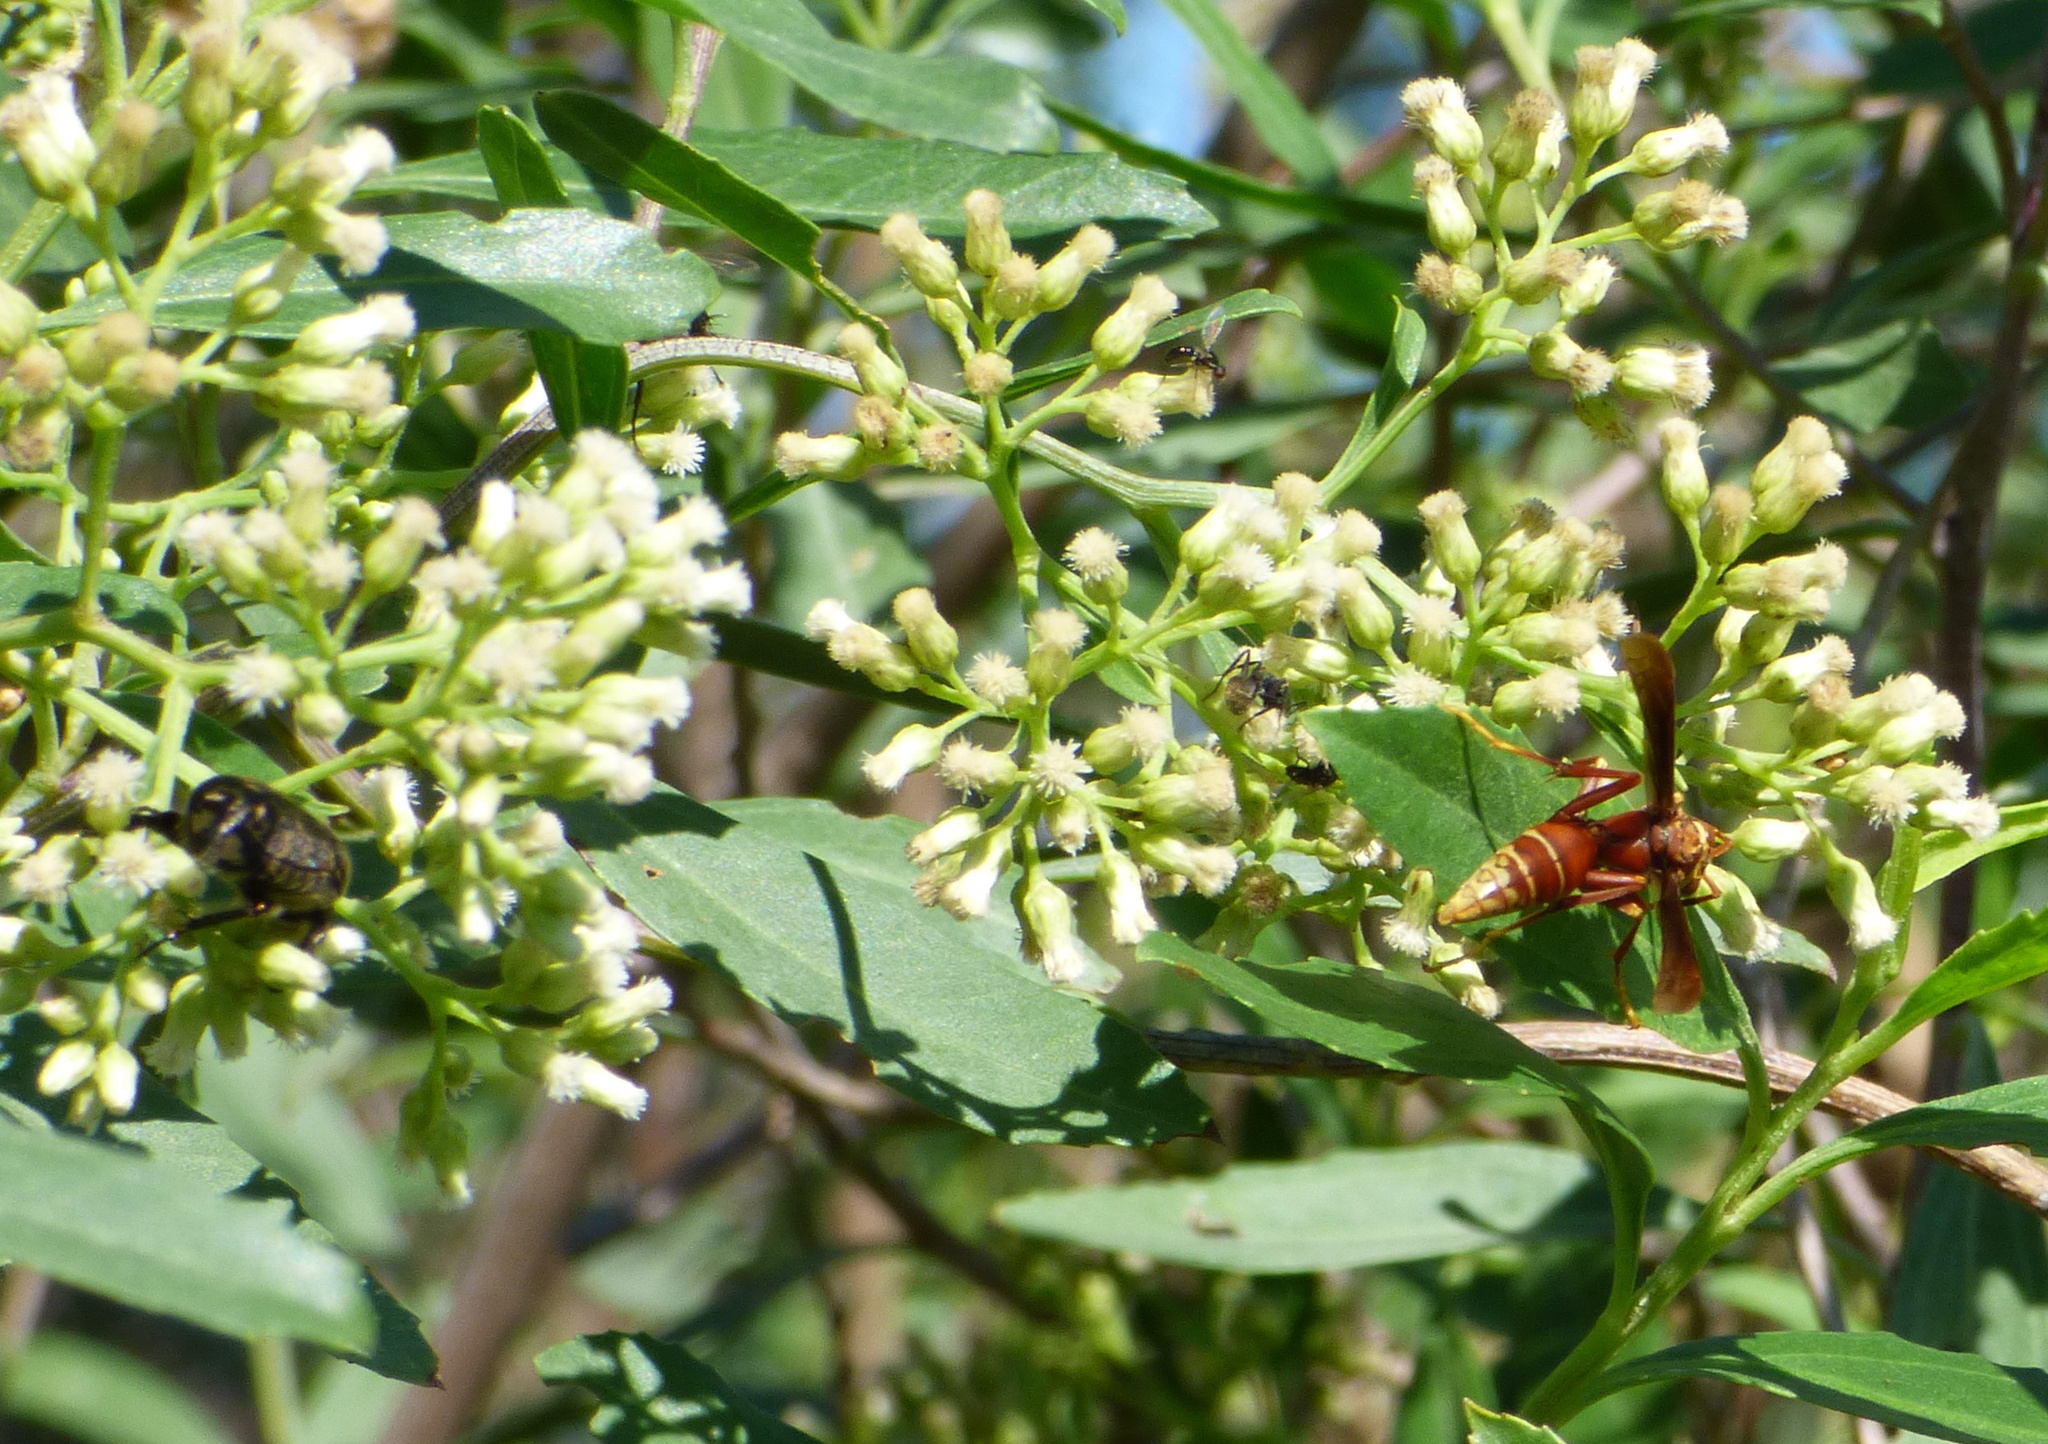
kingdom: Animalia
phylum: Arthropoda
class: Insecta
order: Hymenoptera
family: Eumenidae
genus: Polistes
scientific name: Polistes cavapyta
